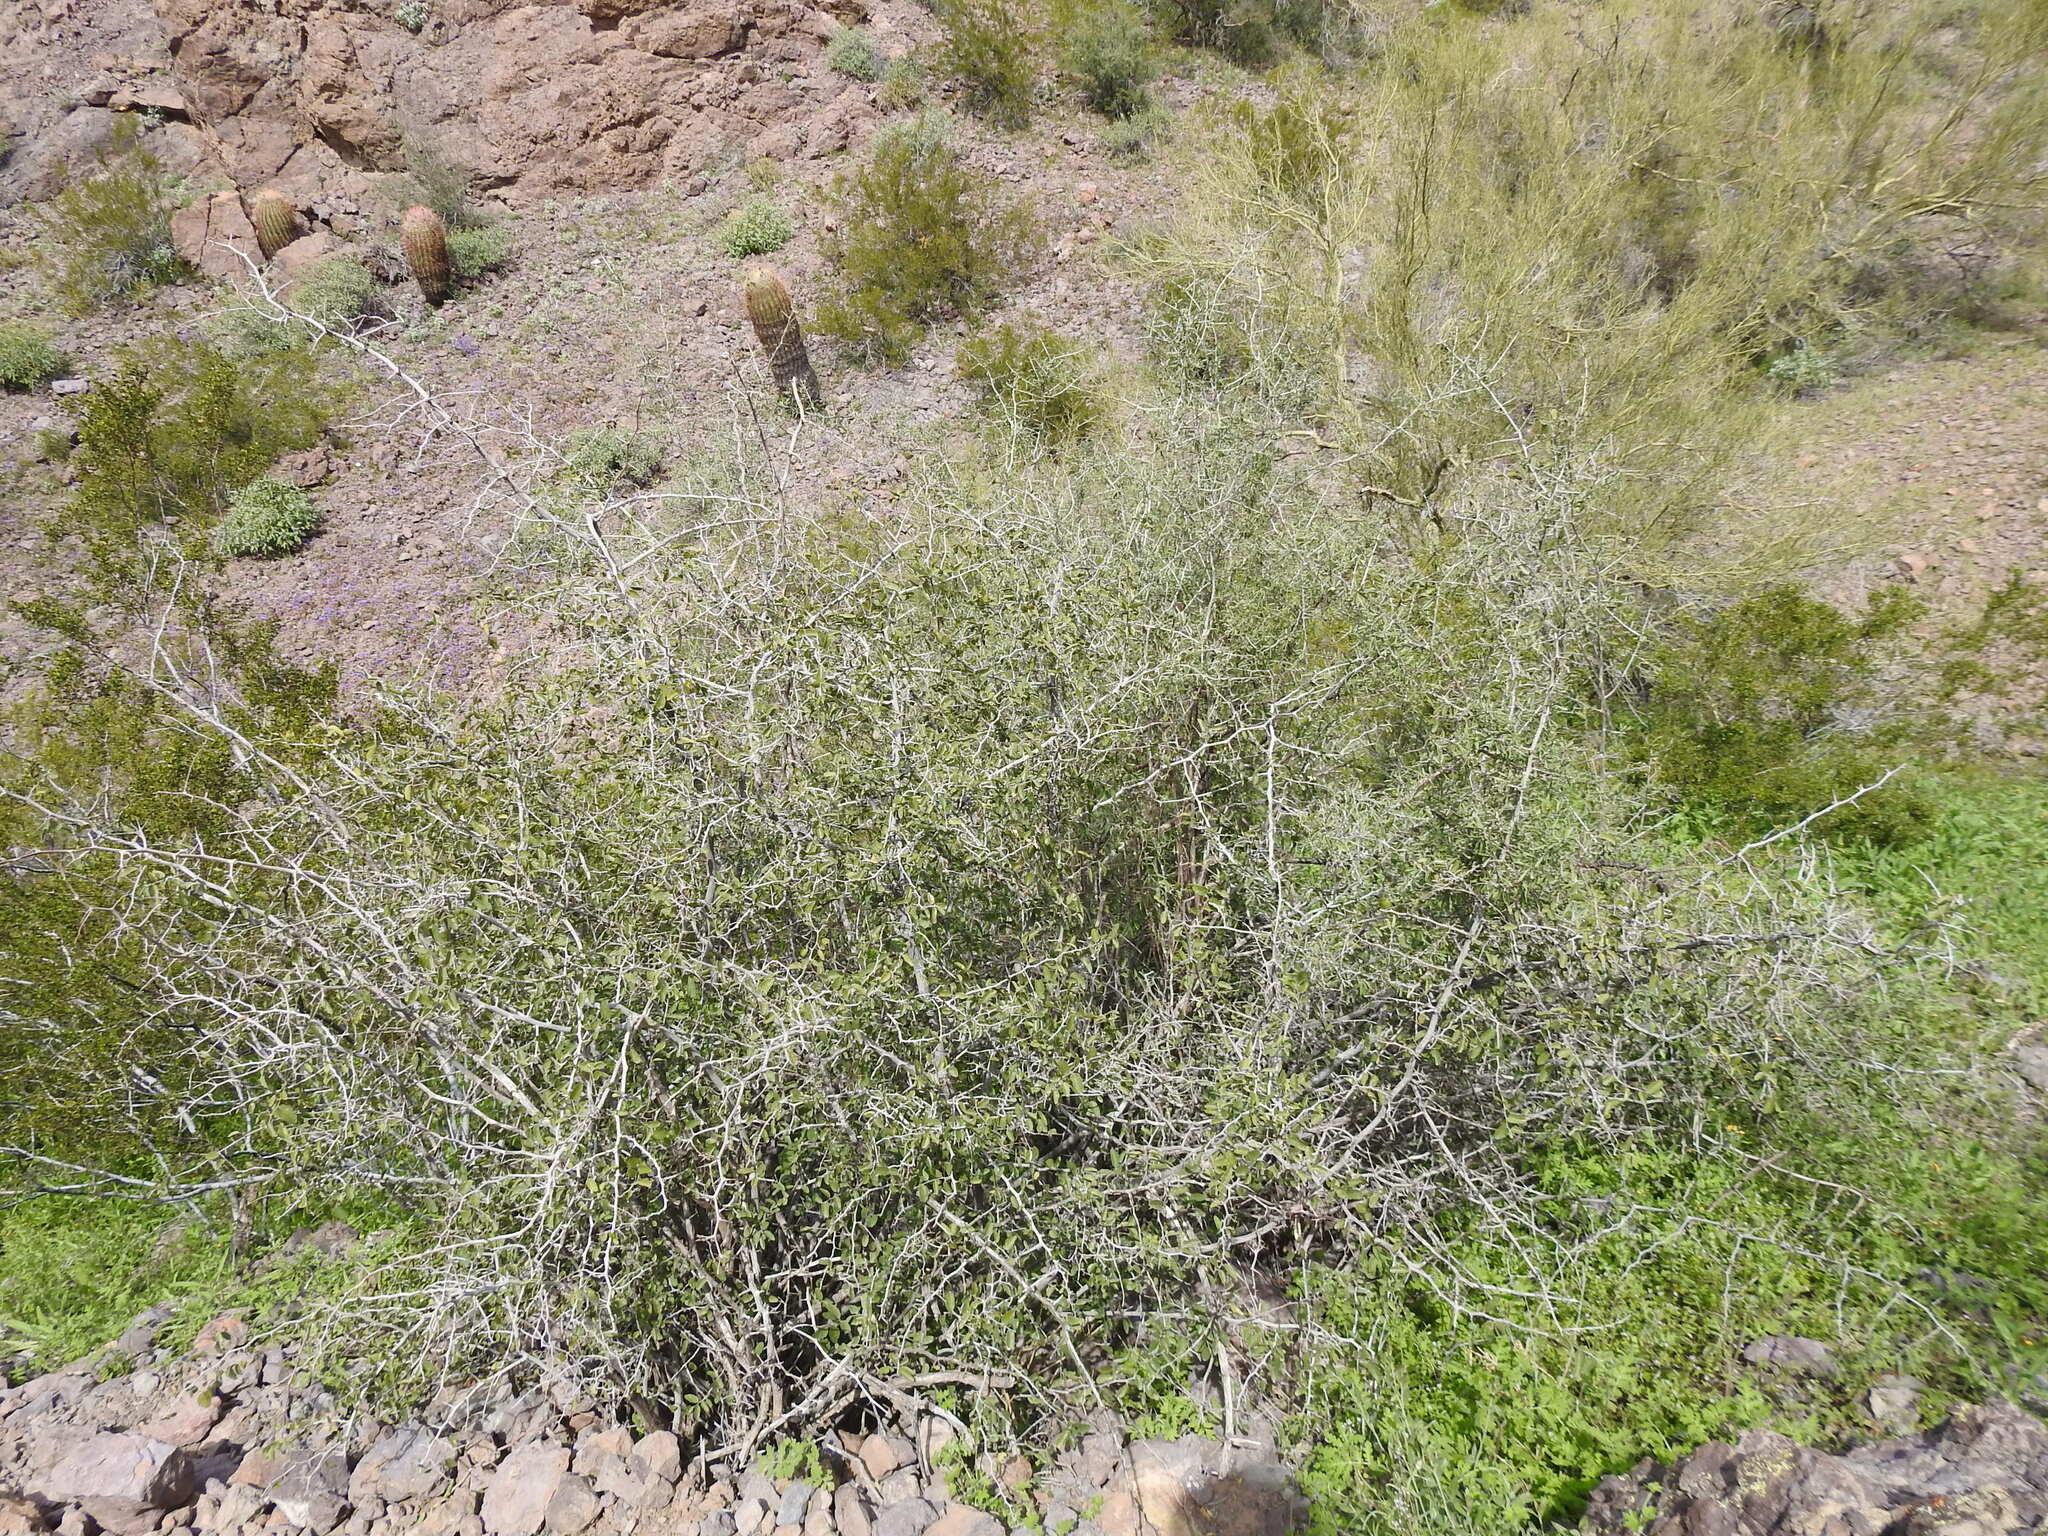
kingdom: Plantae
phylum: Tracheophyta
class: Magnoliopsida
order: Rosales
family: Cannabaceae
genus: Celtis
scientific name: Celtis pallida
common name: Desert hackberry
